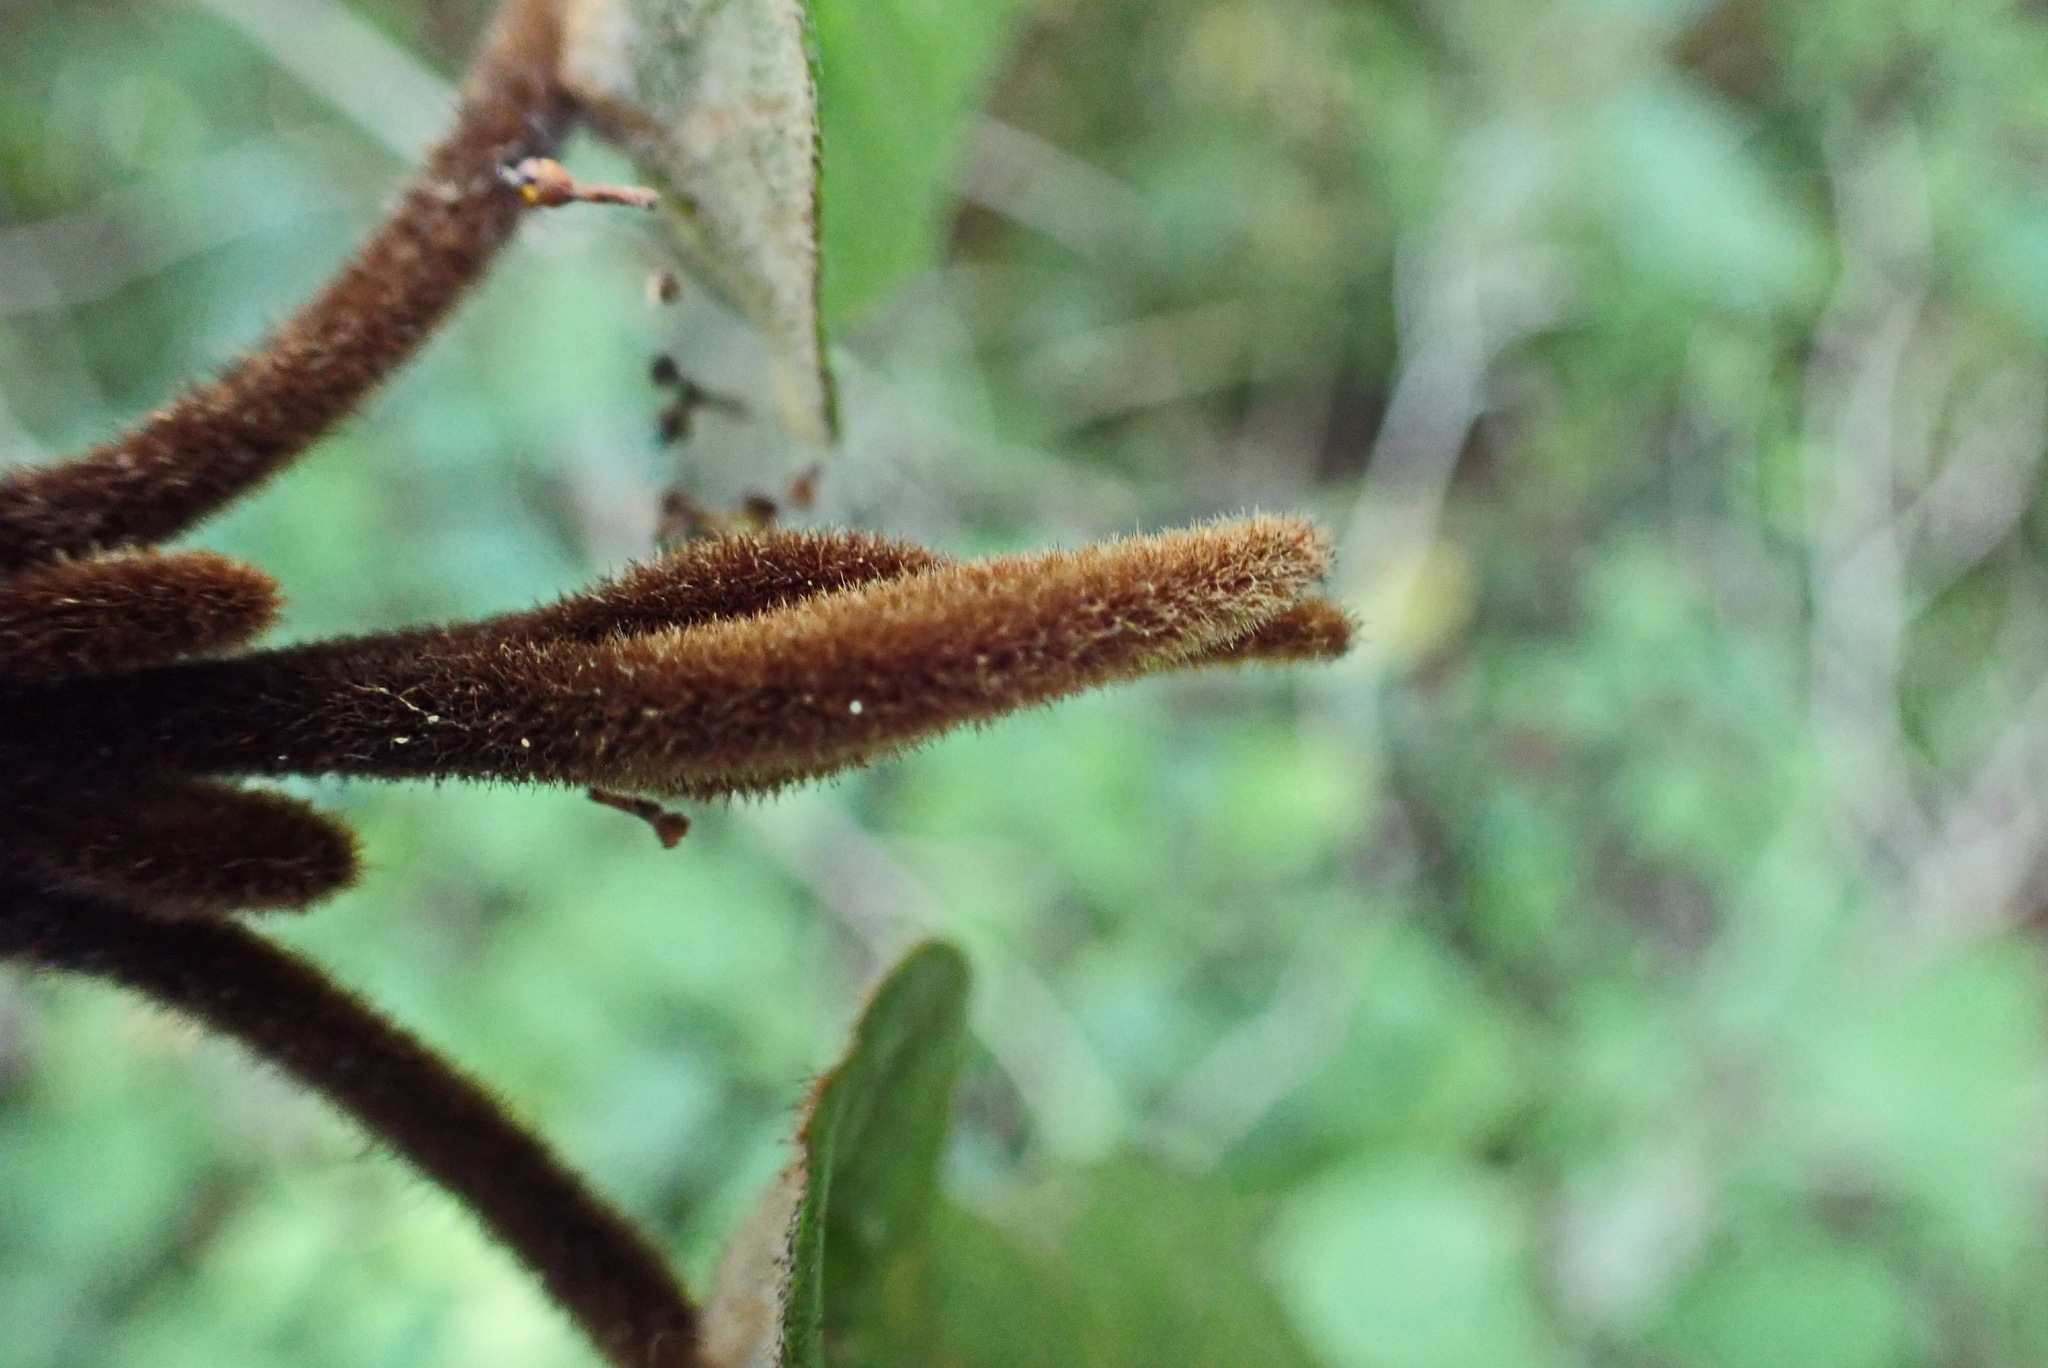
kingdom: Plantae
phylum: Tracheophyta
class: Magnoliopsida
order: Saxifragales
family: Hamamelidaceae
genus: Trichocladus
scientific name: Trichocladus crinitus
